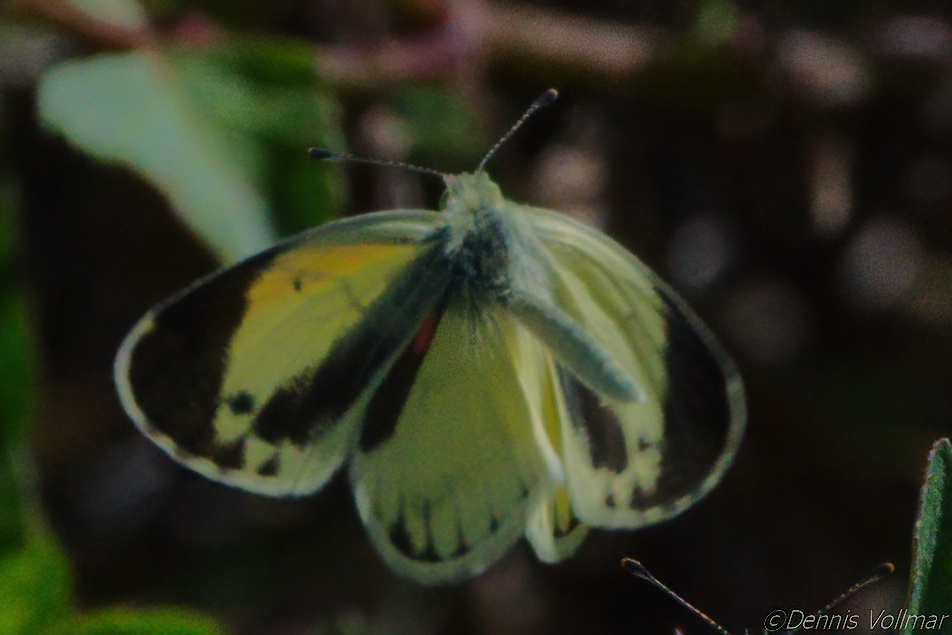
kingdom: Animalia
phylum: Arthropoda
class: Insecta
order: Lepidoptera
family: Pieridae
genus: Nathalis
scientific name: Nathalis iole
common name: Dainty sulphur
